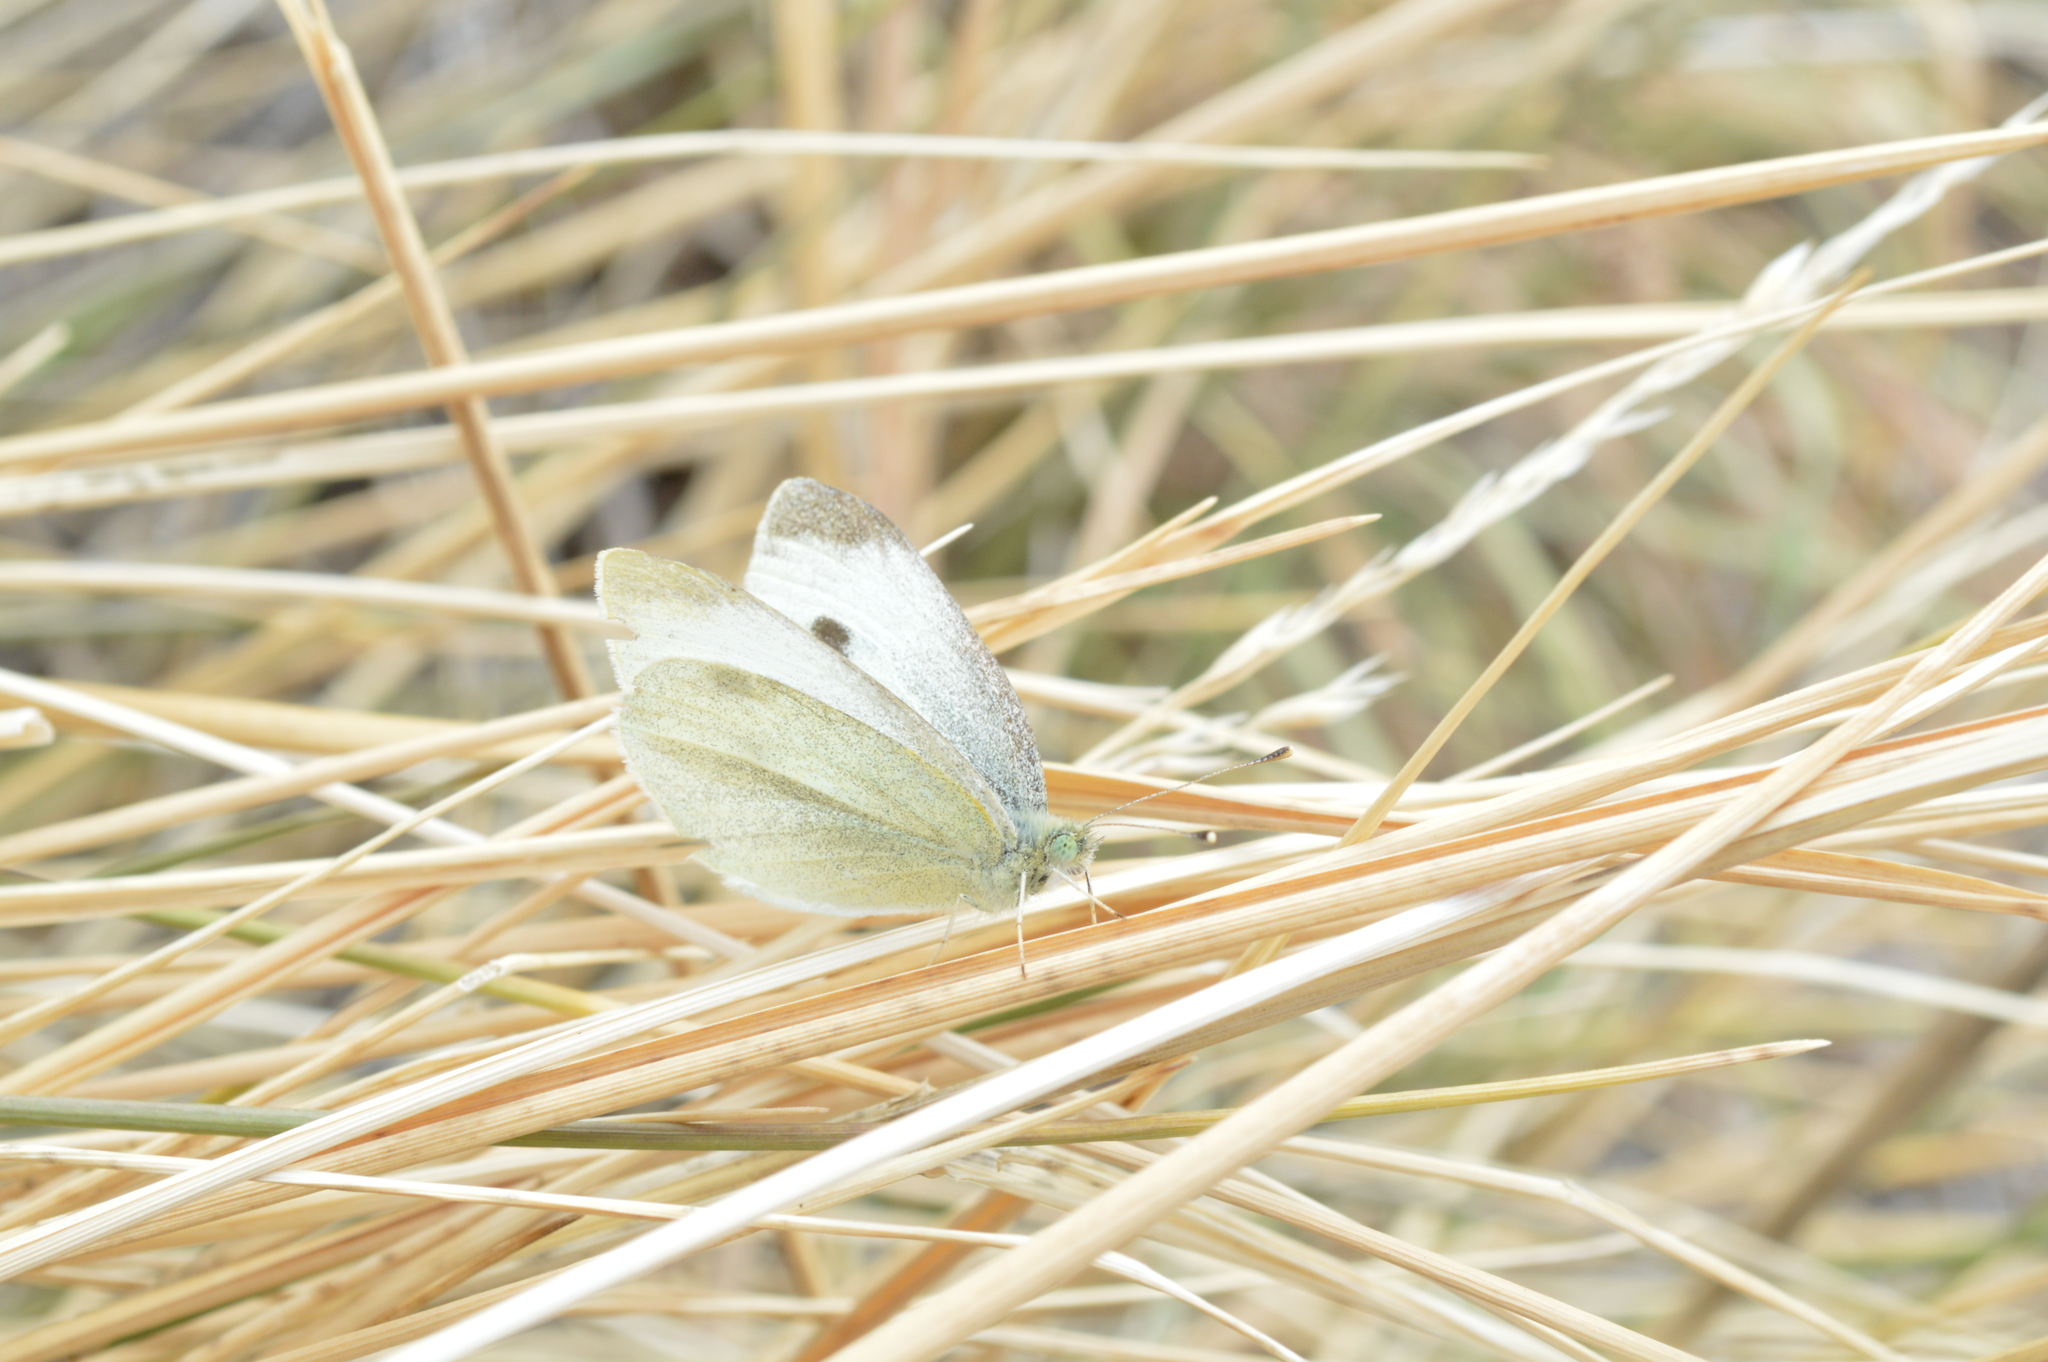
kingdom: Animalia
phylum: Arthropoda
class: Insecta
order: Lepidoptera
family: Pieridae
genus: Pieris
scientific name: Pieris rapae
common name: Small white
